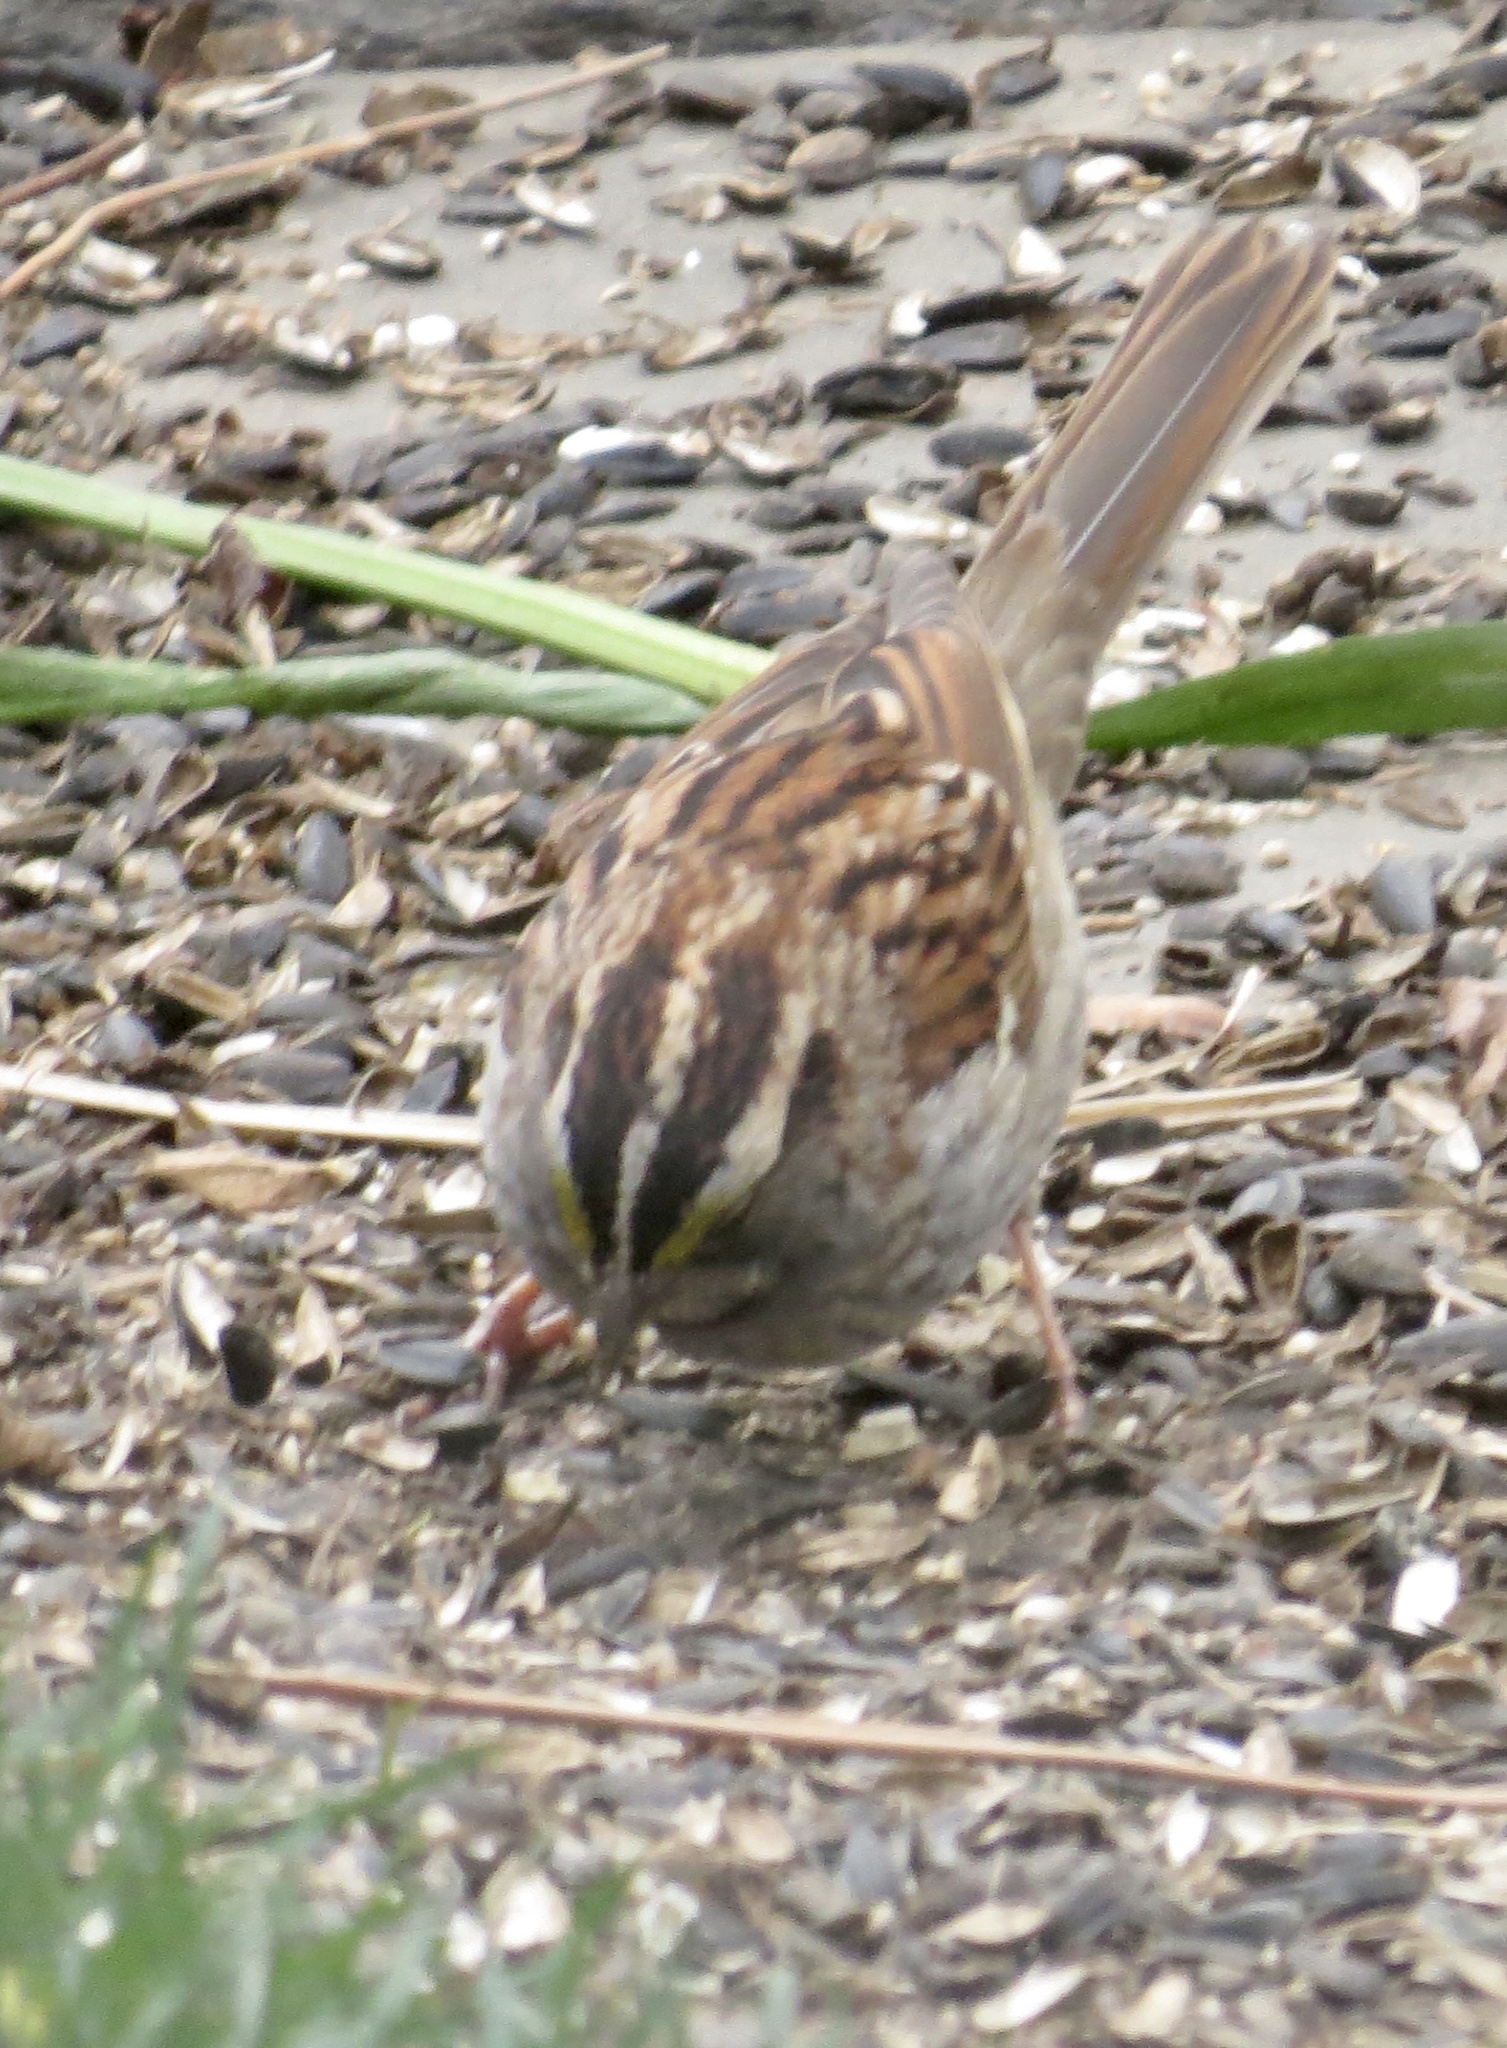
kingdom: Animalia
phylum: Chordata
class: Aves
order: Passeriformes
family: Passerellidae
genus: Zonotrichia
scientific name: Zonotrichia albicollis
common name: White-throated sparrow
